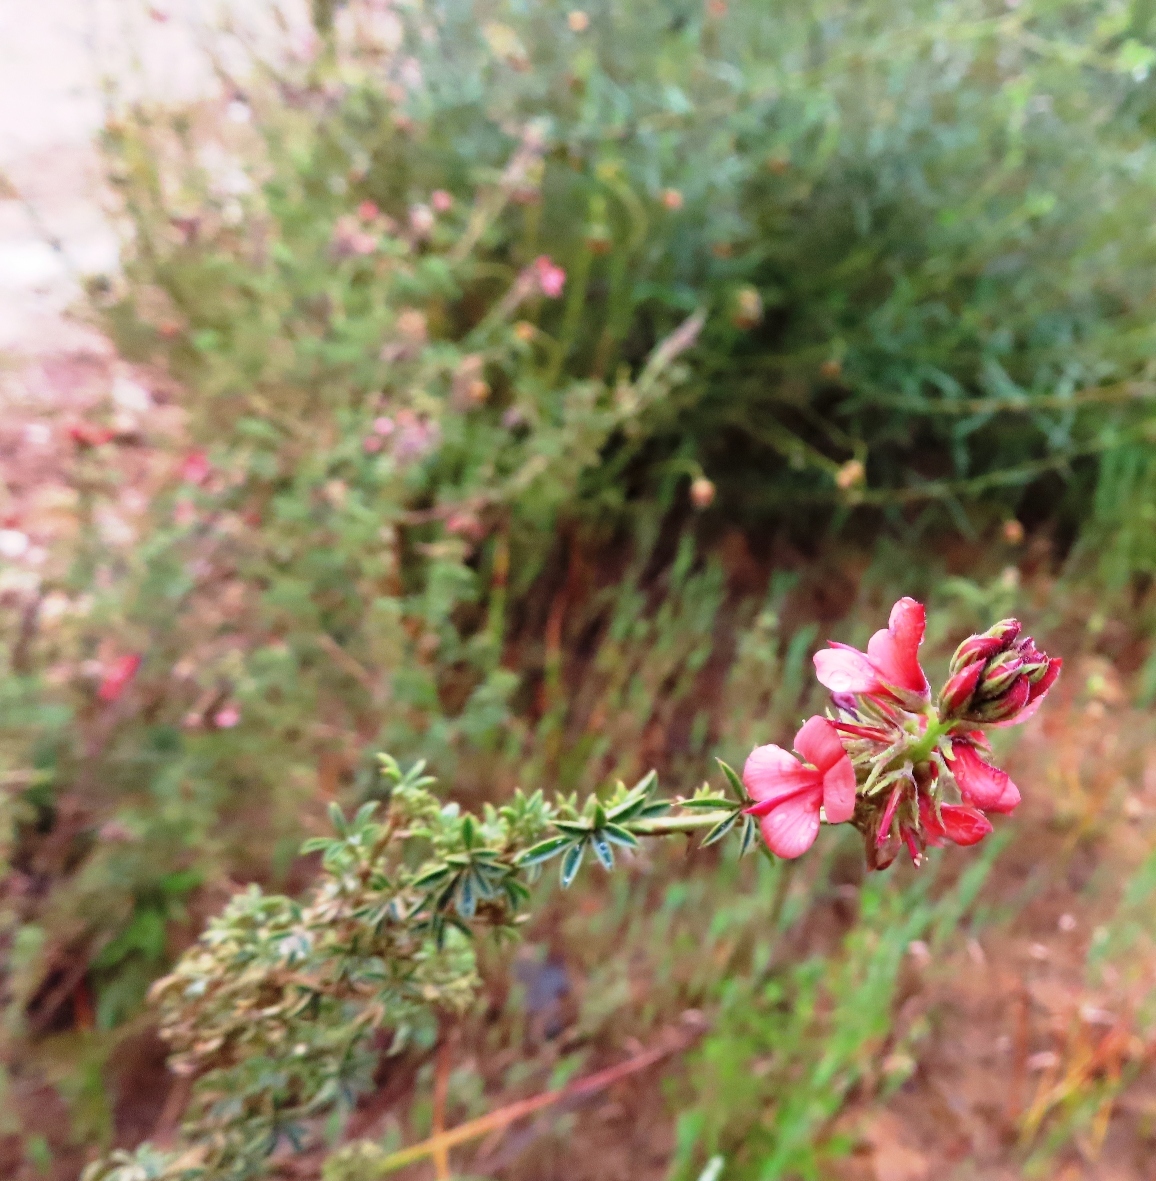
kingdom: Plantae
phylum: Tracheophyta
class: Magnoliopsida
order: Fabales
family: Fabaceae
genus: Indigofera
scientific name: Indigofera digitata
